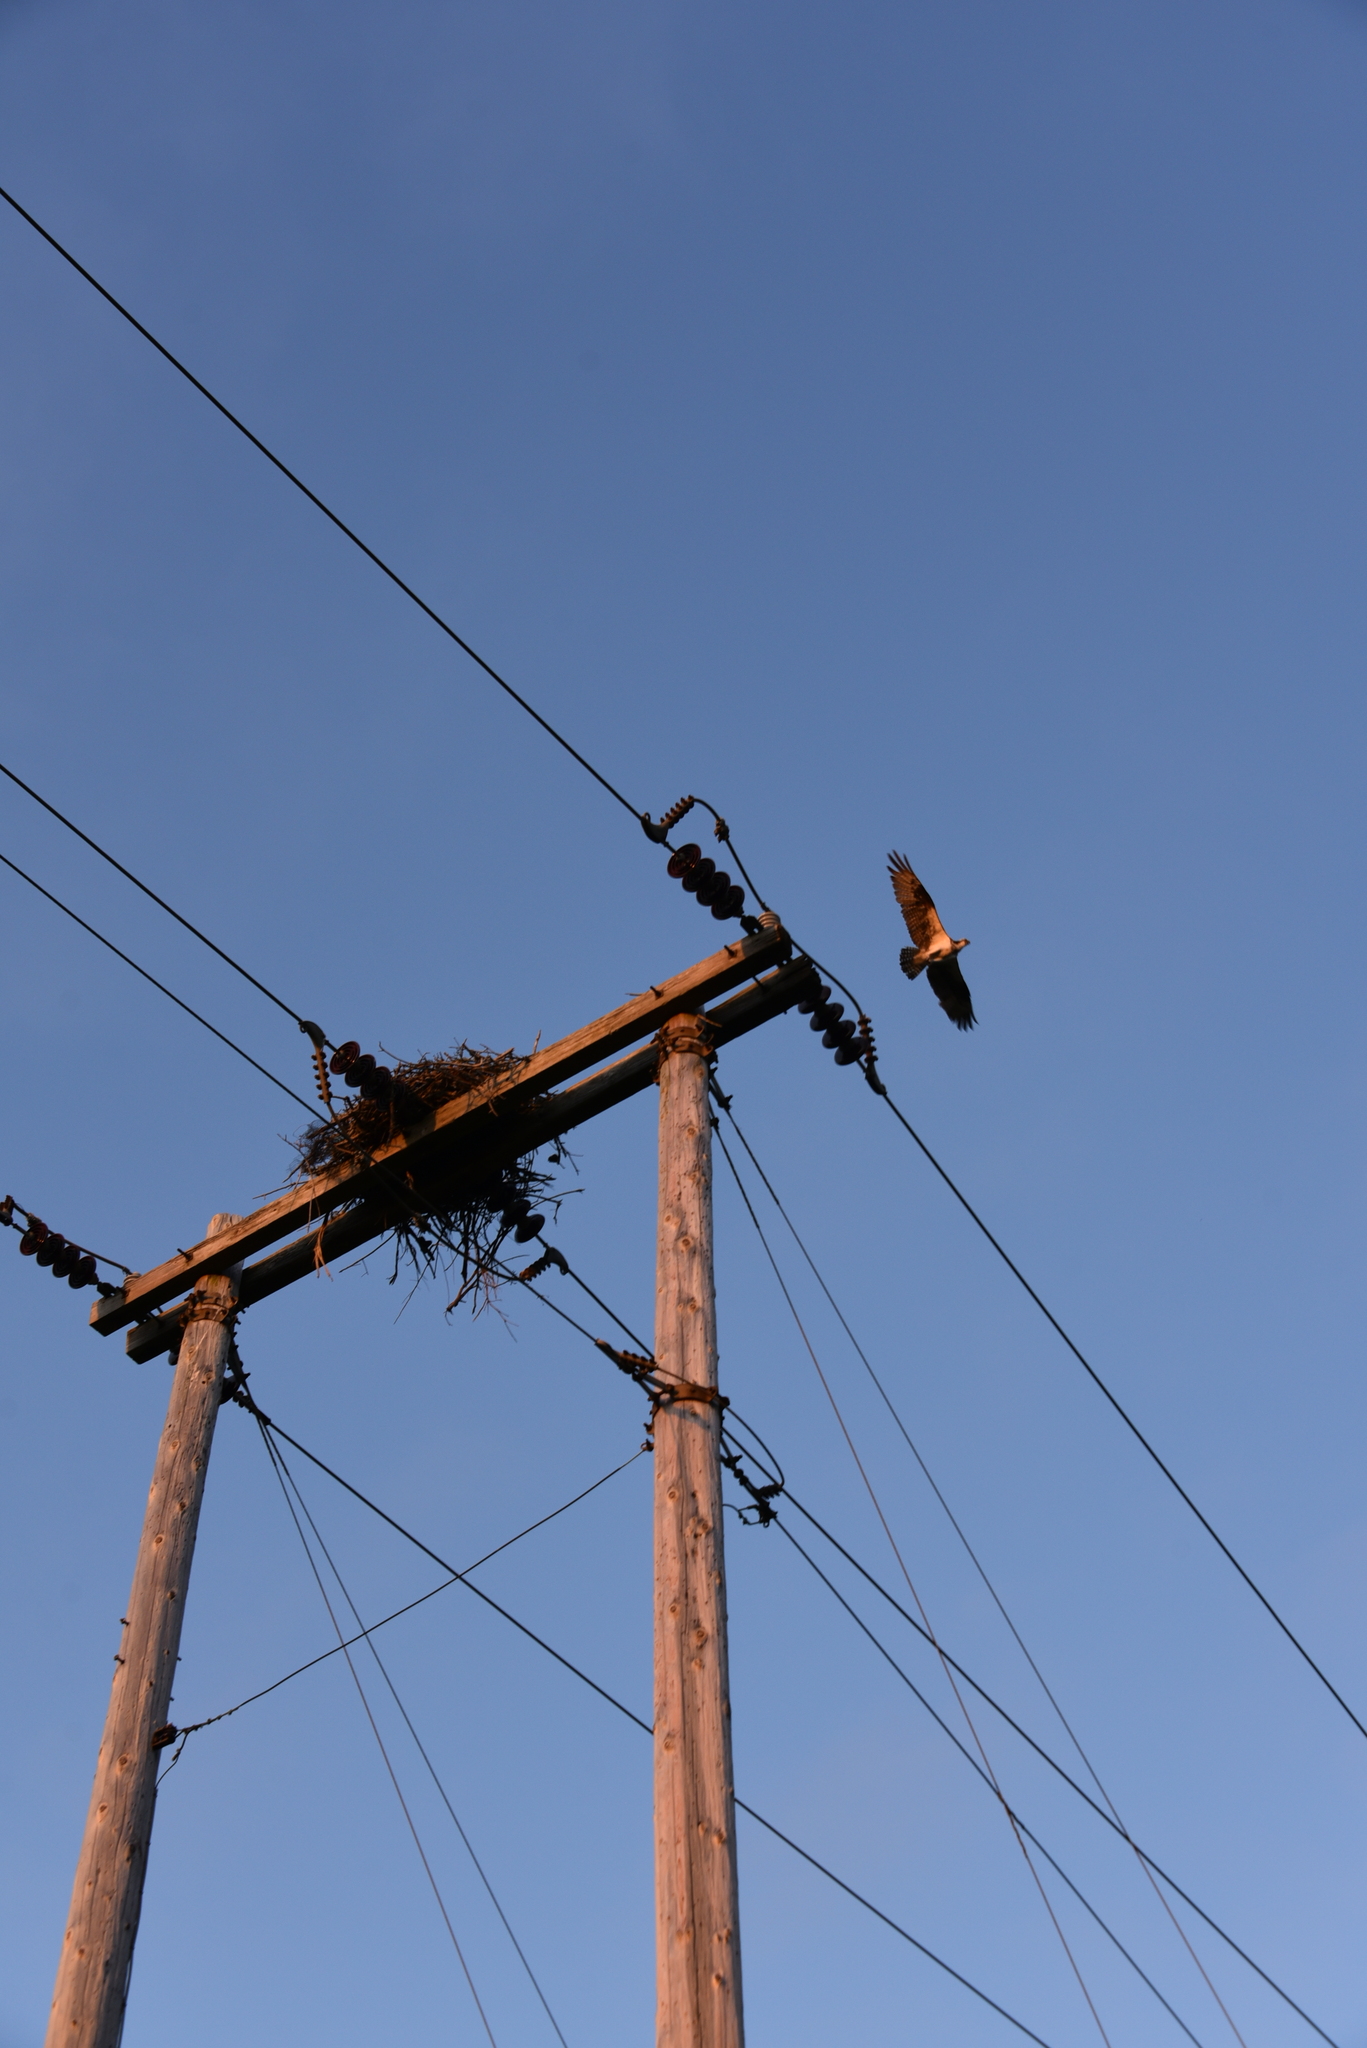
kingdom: Animalia
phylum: Chordata
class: Aves
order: Accipitriformes
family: Pandionidae
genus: Pandion
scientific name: Pandion haliaetus
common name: Osprey
